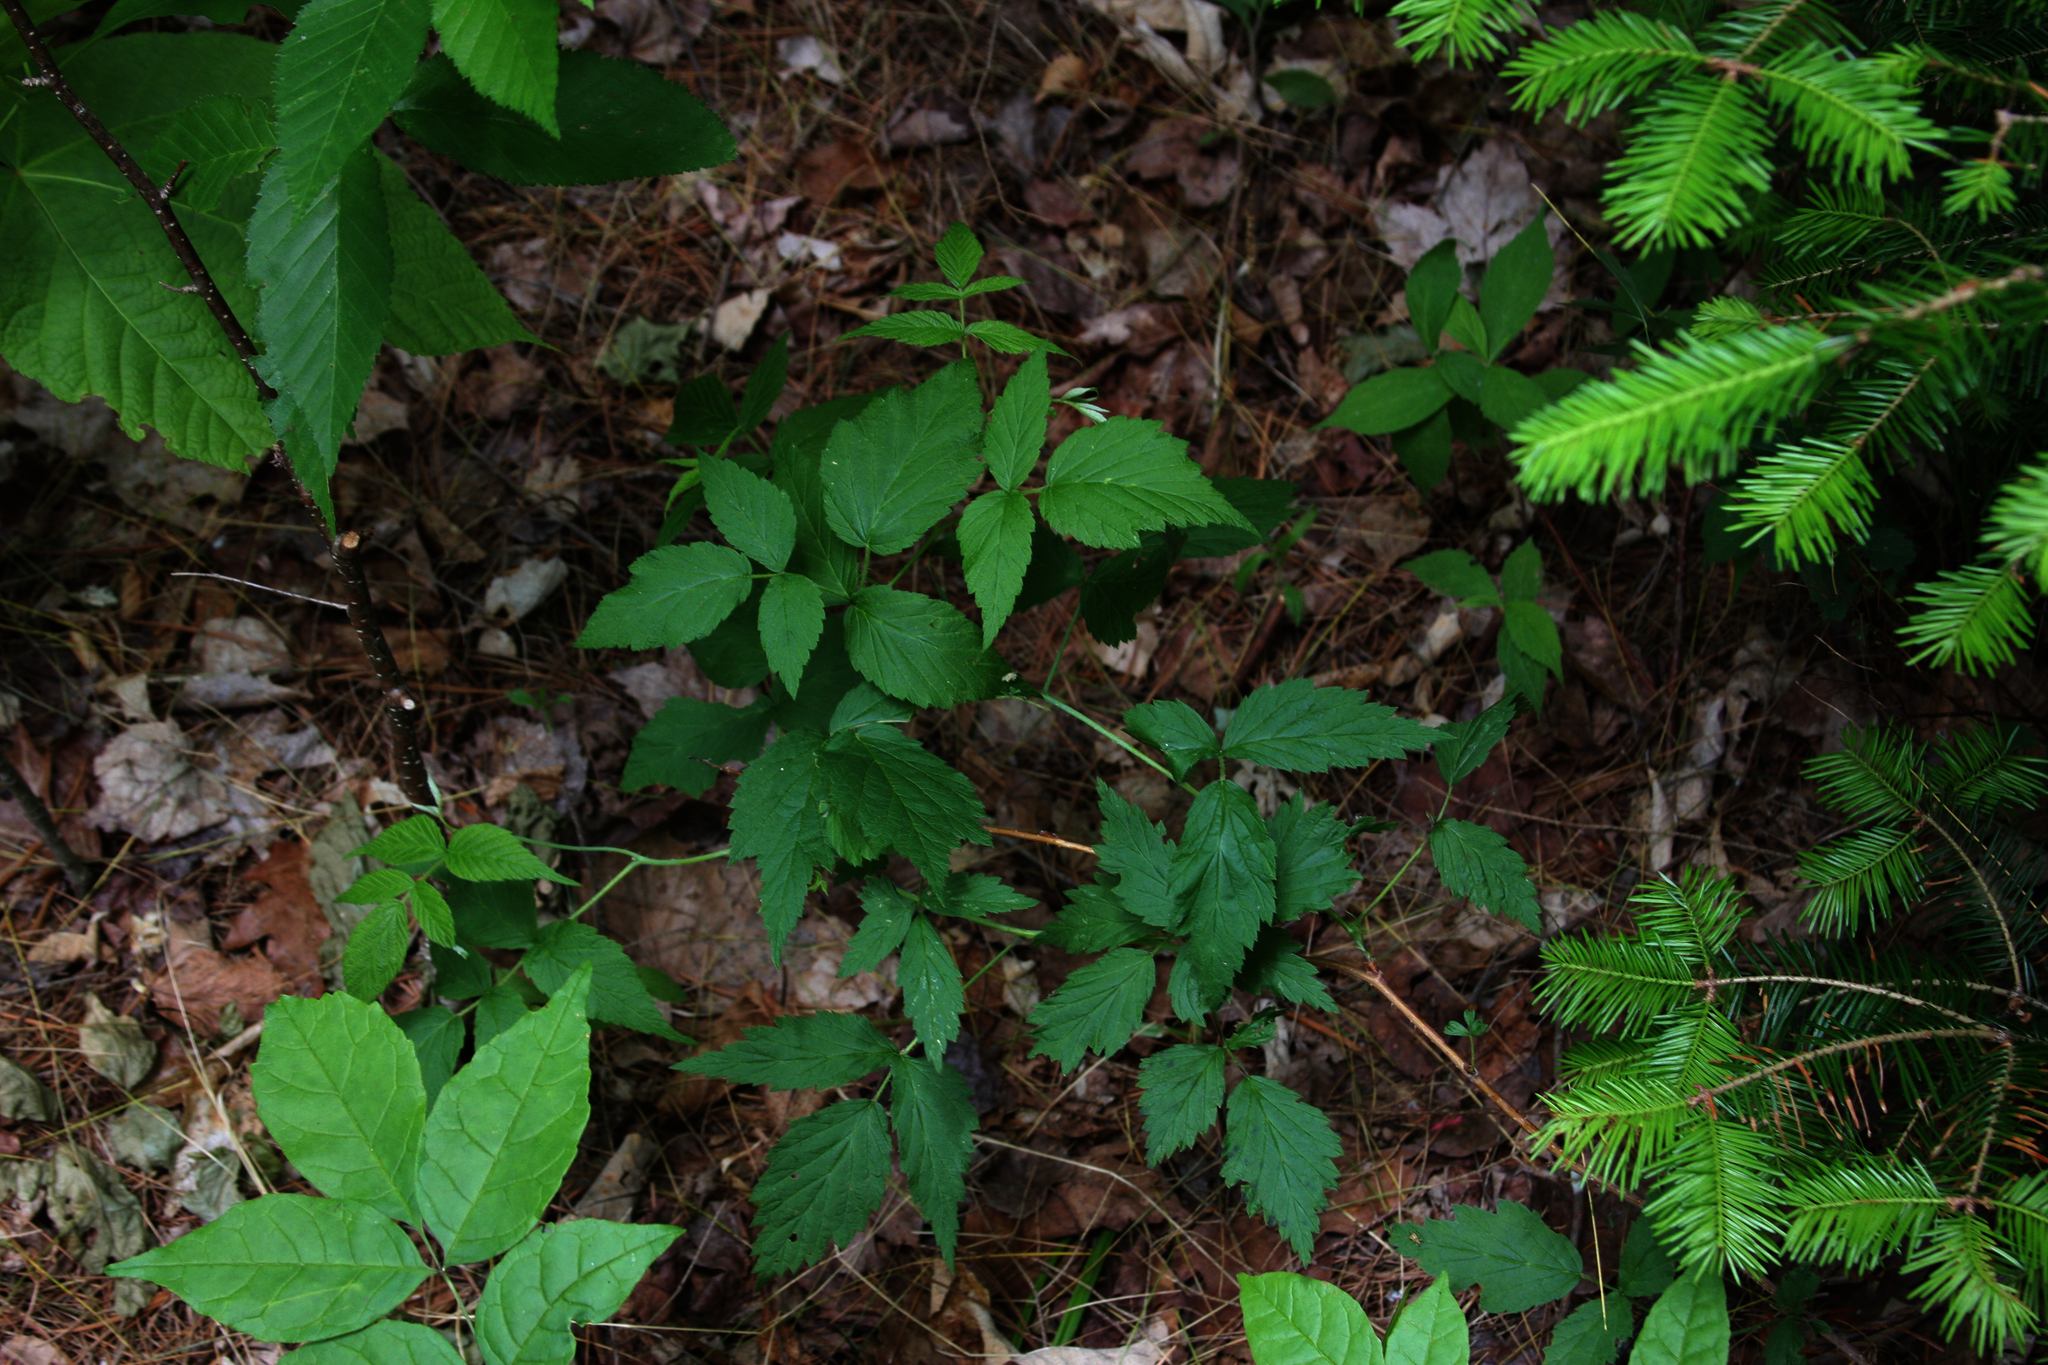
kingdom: Plantae
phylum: Tracheophyta
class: Pinopsida
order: Pinales
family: Pinaceae
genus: Abies
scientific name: Abies balsamea
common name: Balsam fir
